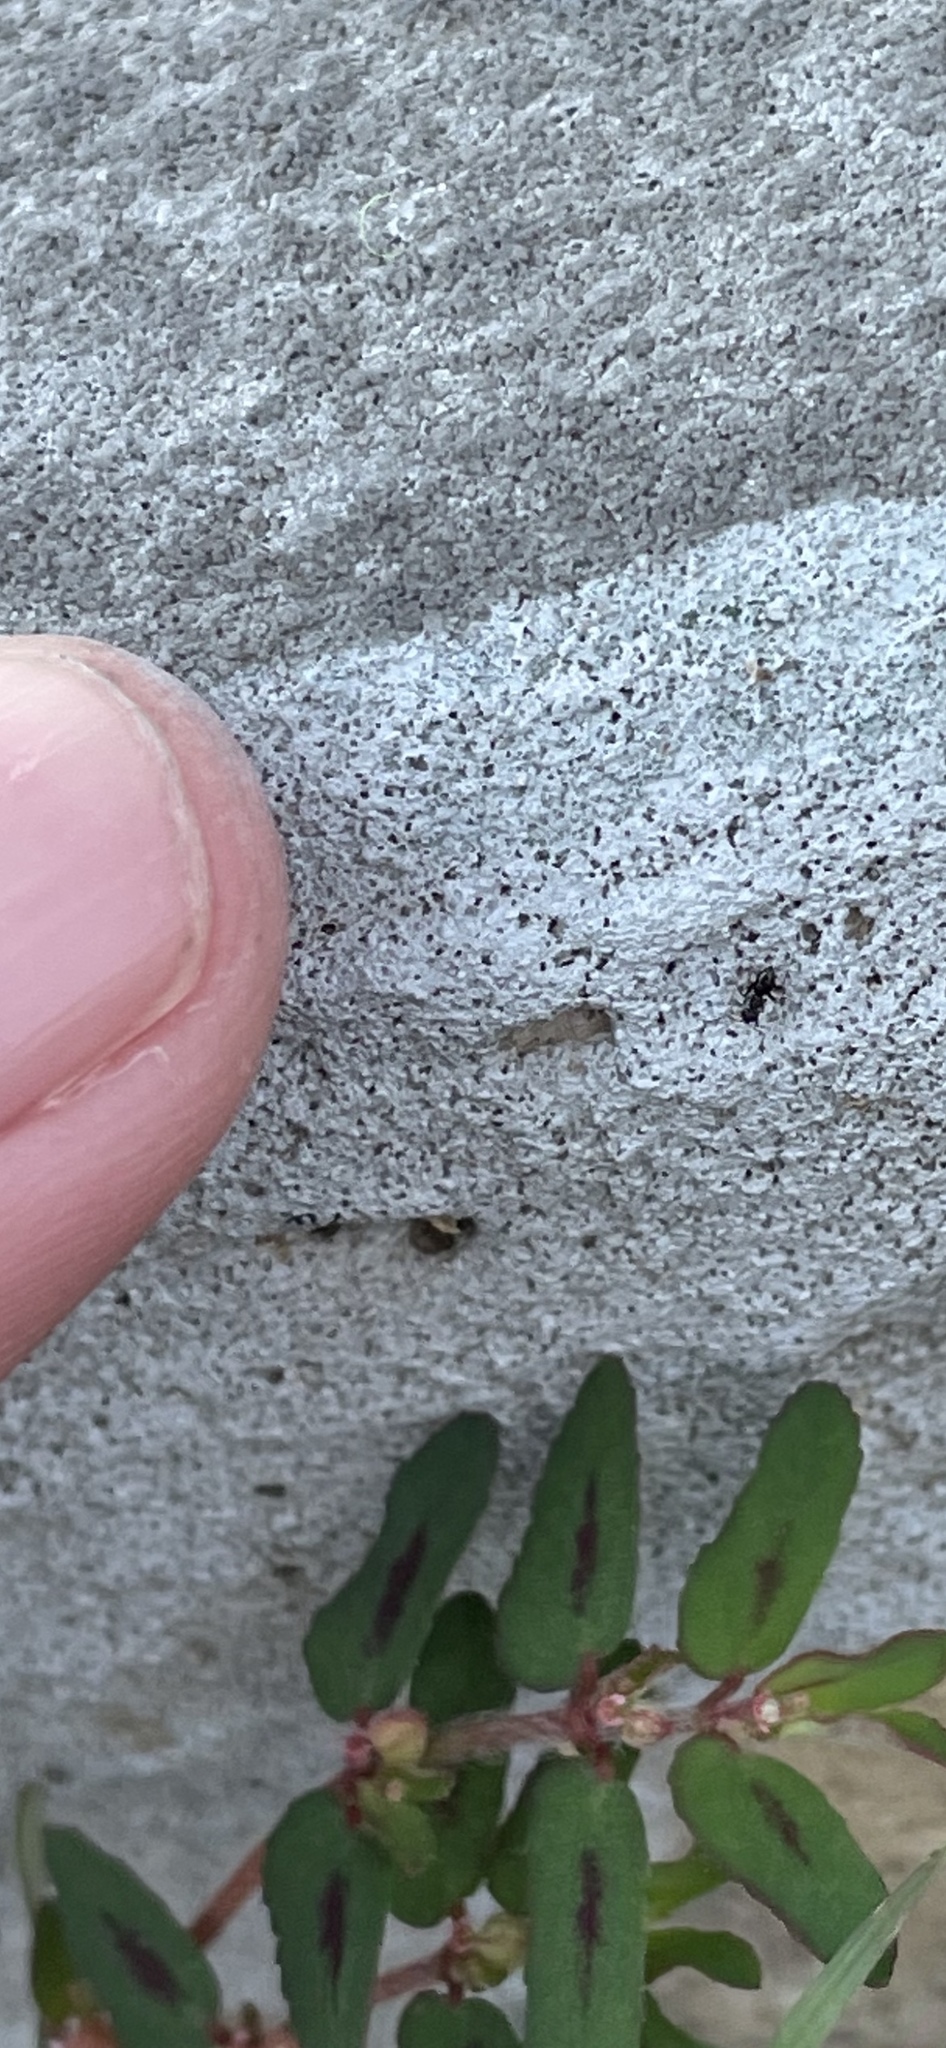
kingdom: Animalia
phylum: Arthropoda
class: Insecta
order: Hymenoptera
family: Formicidae
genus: Brachymyrmex
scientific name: Brachymyrmex patagonicus
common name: Dark rover ant
